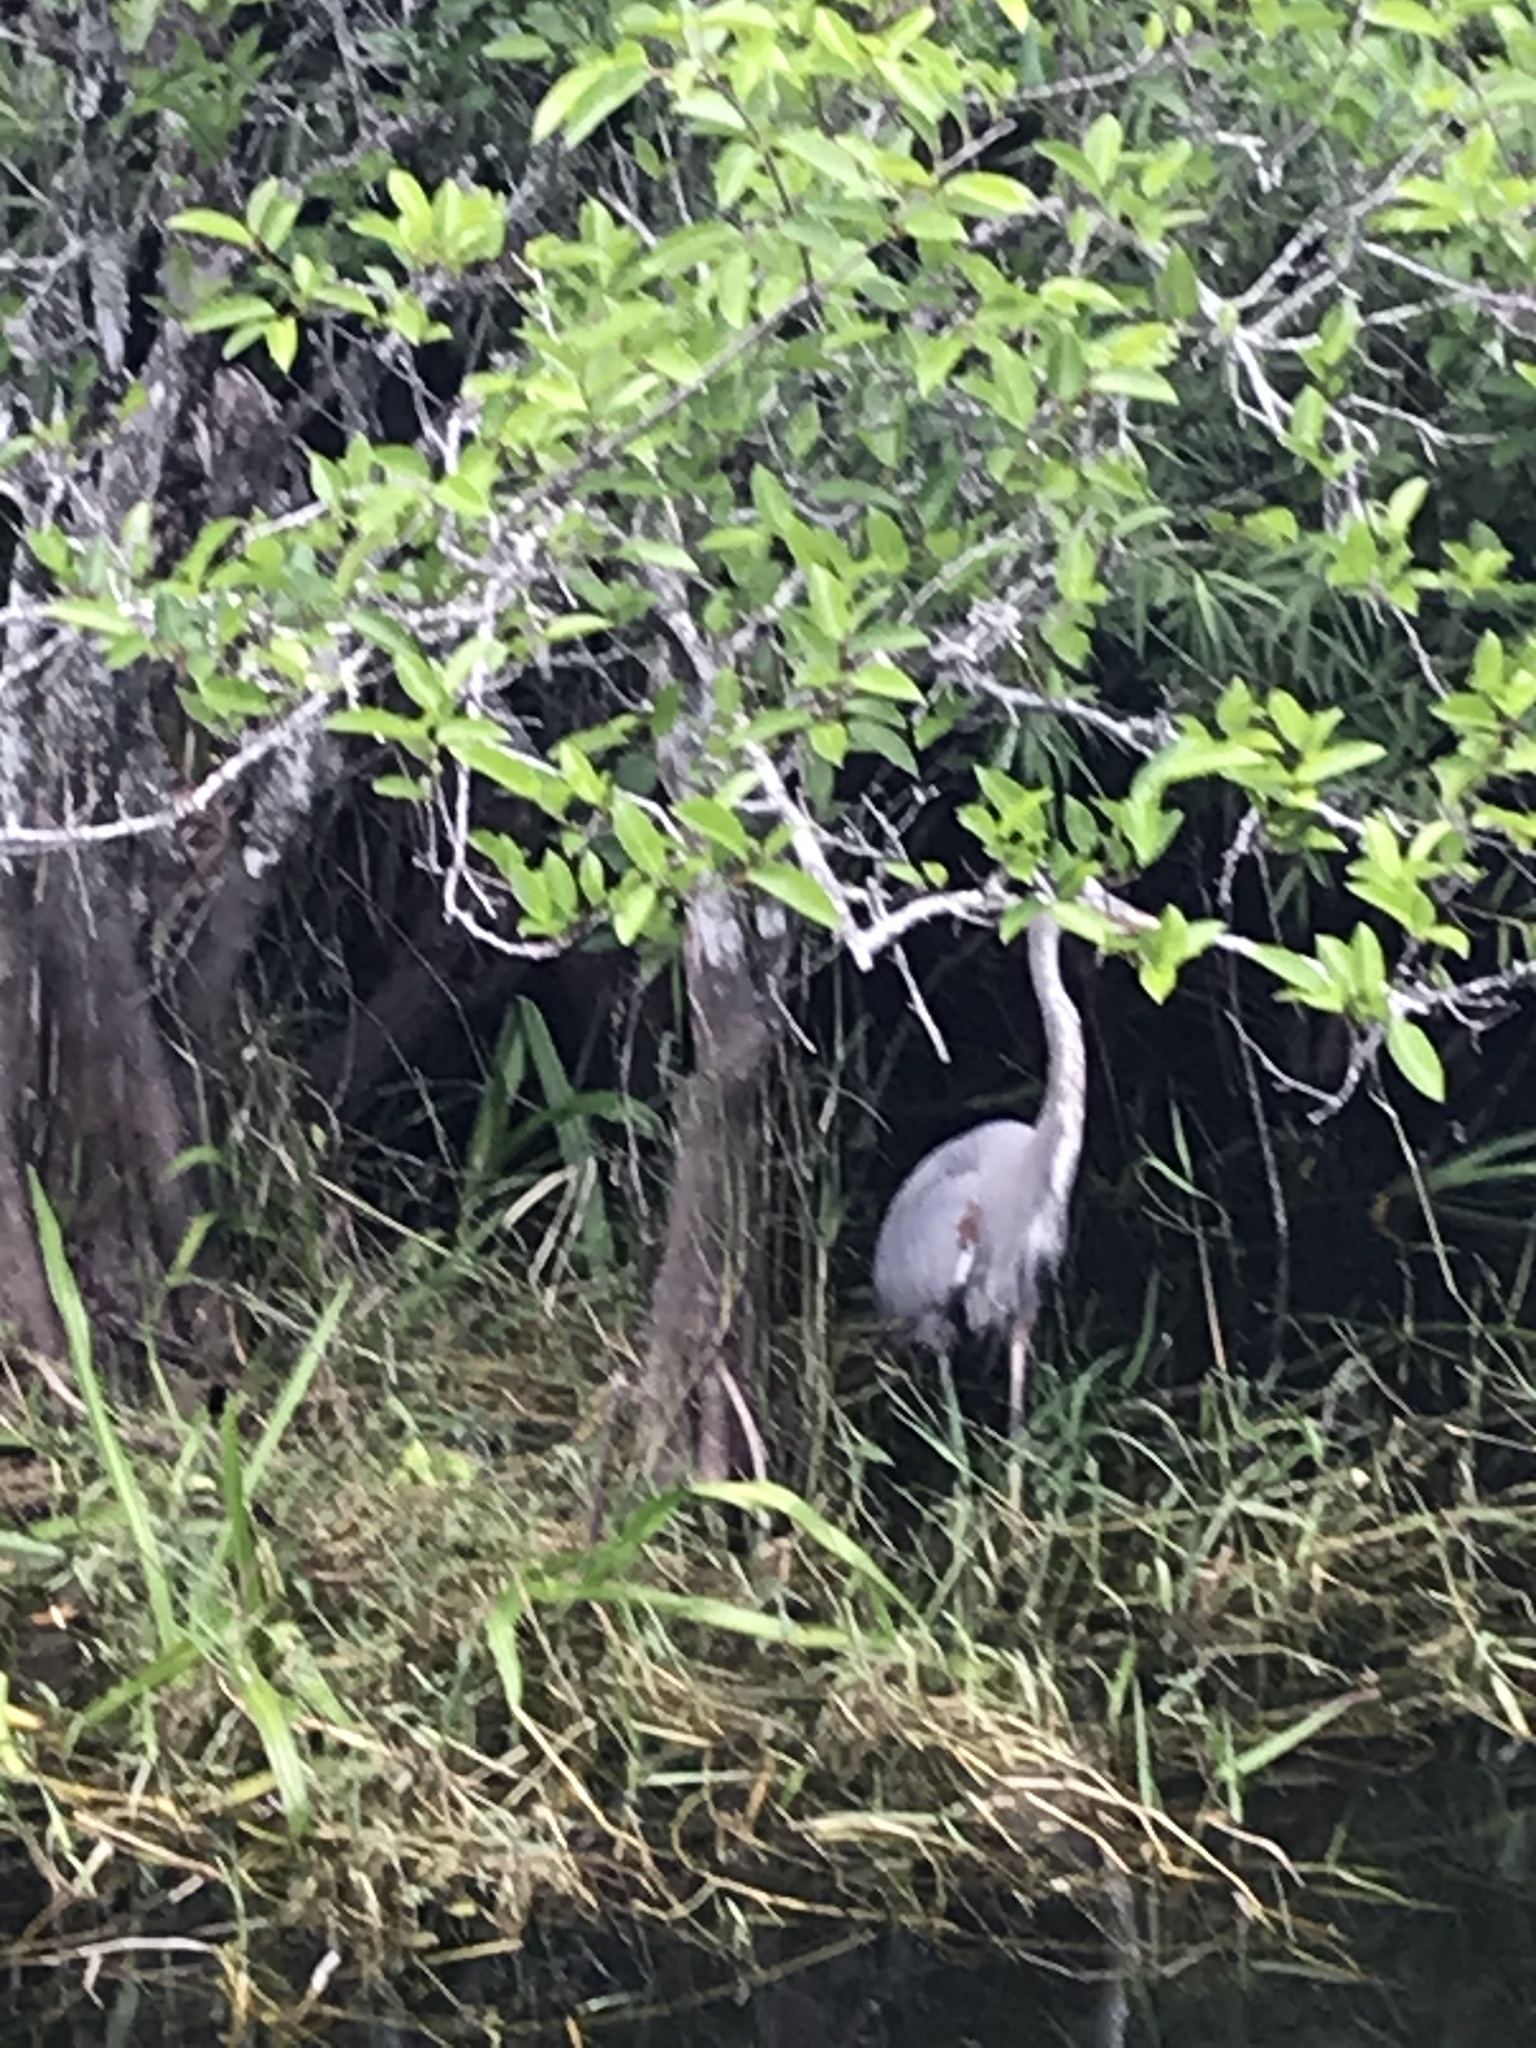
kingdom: Animalia
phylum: Chordata
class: Aves
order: Pelecaniformes
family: Ardeidae
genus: Ardea
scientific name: Ardea herodias
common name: Great blue heron
